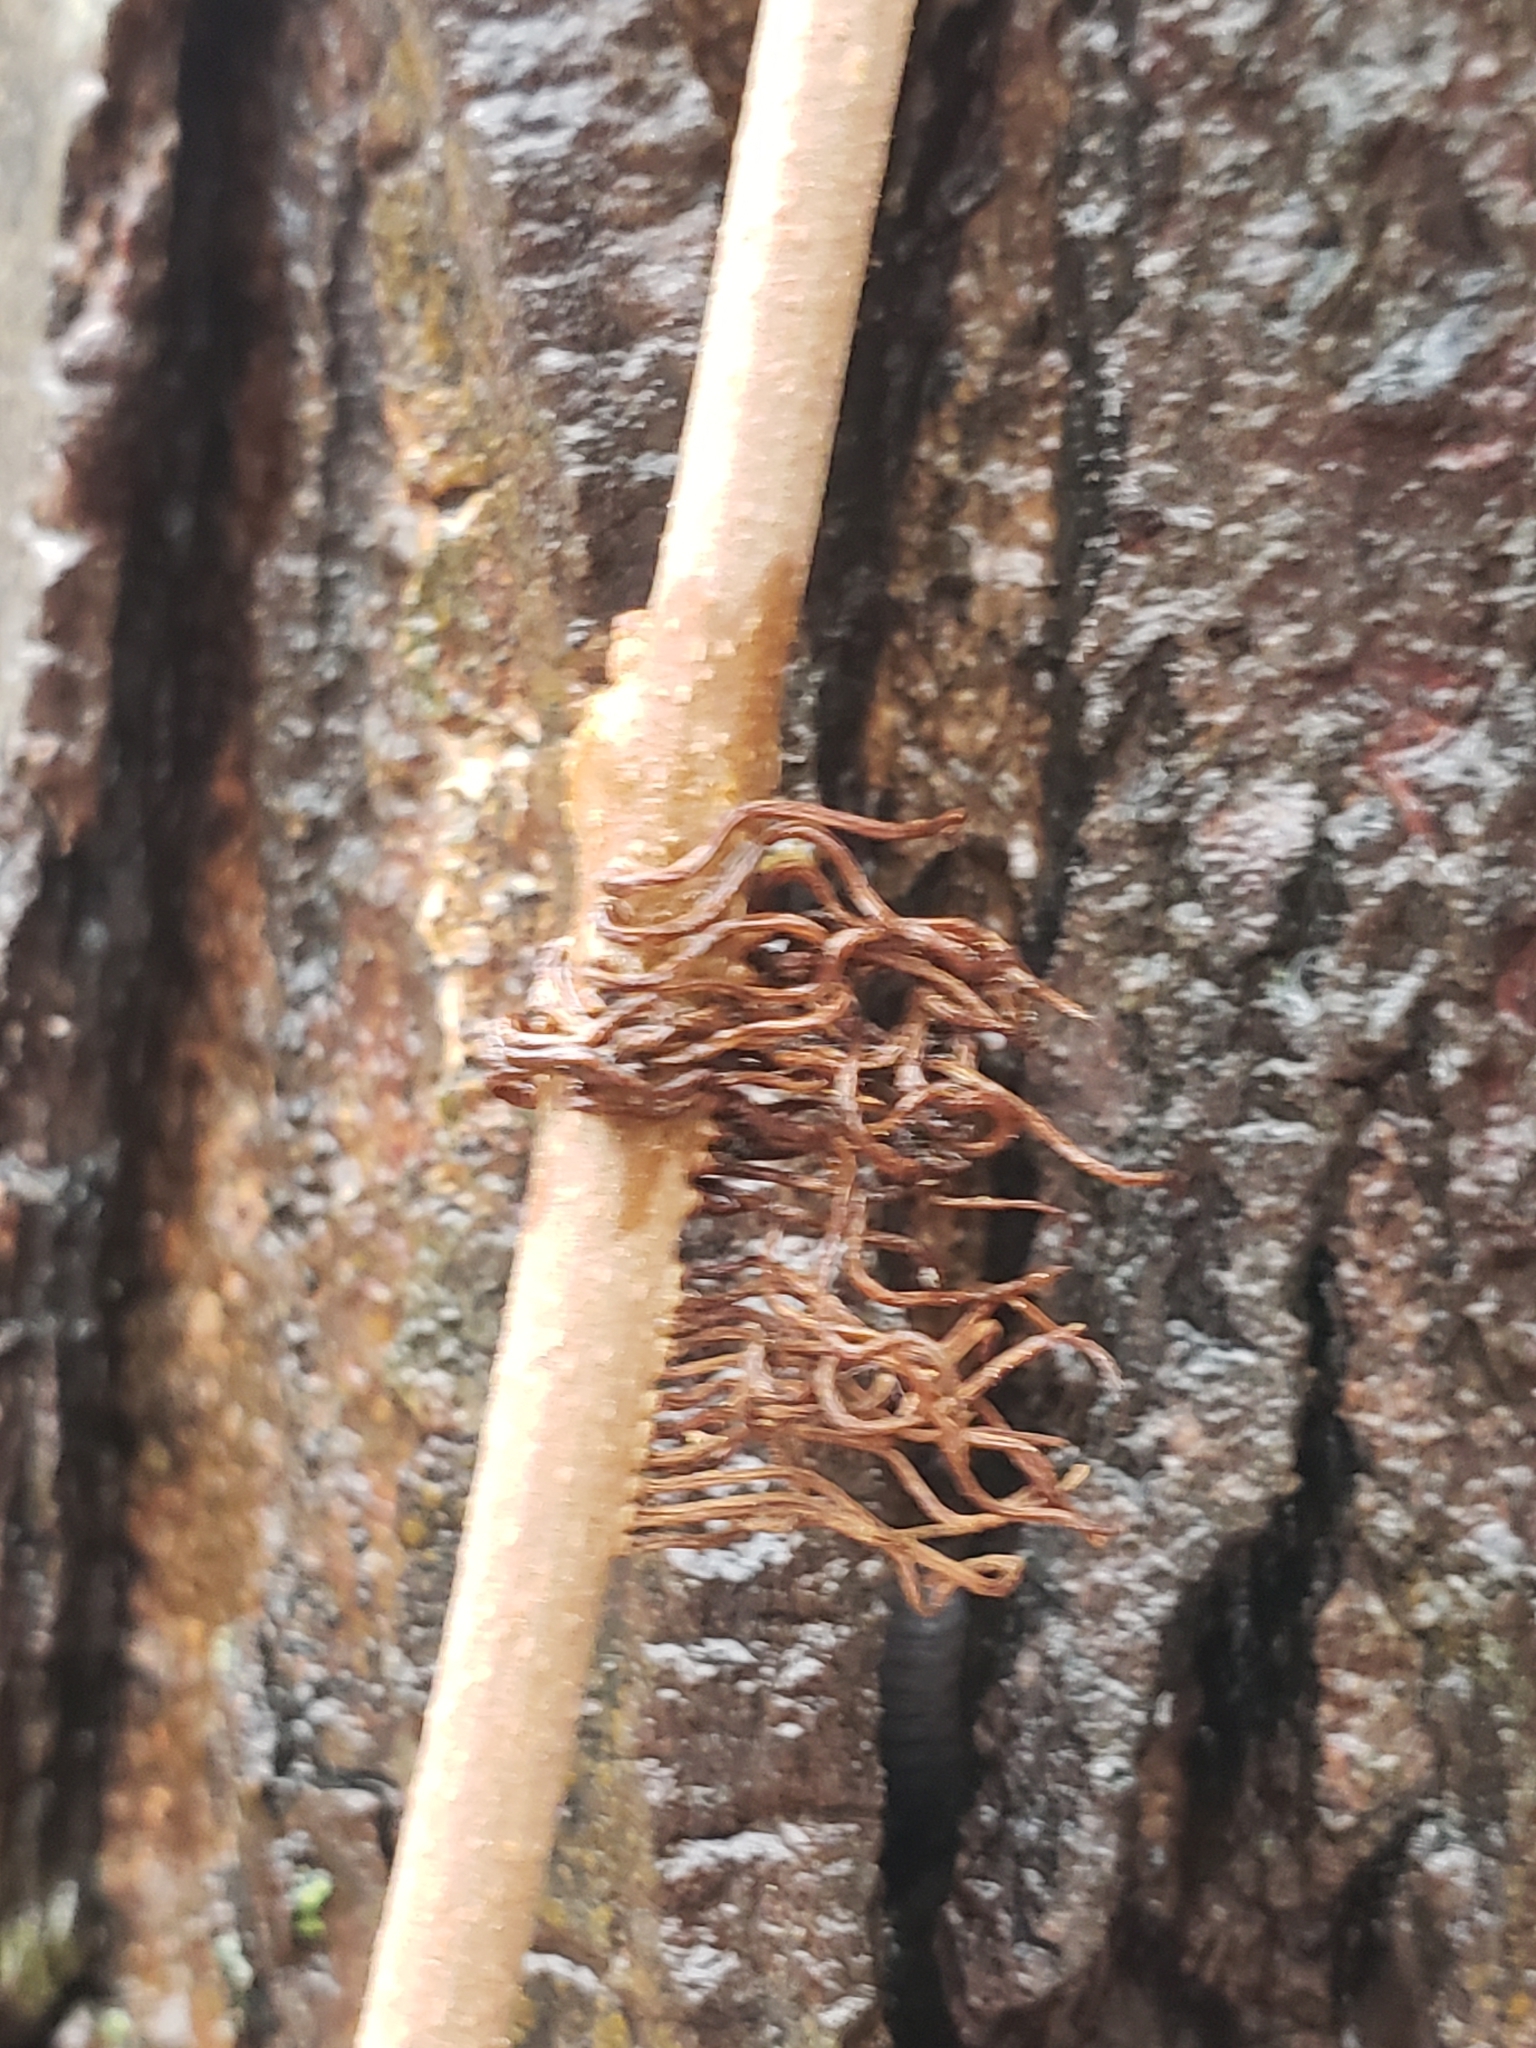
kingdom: Plantae
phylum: Tracheophyta
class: Magnoliopsida
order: Sapindales
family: Anacardiaceae
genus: Toxicodendron
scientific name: Toxicodendron radicans
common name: Poison ivy
